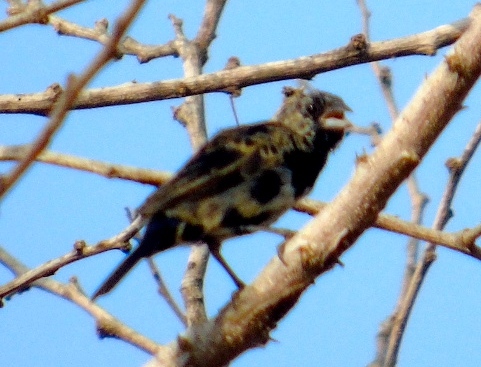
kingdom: Animalia
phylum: Chordata
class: Aves
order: Passeriformes
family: Thraupidae
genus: Volatinia
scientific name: Volatinia jacarina
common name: Blue-black grassquit
